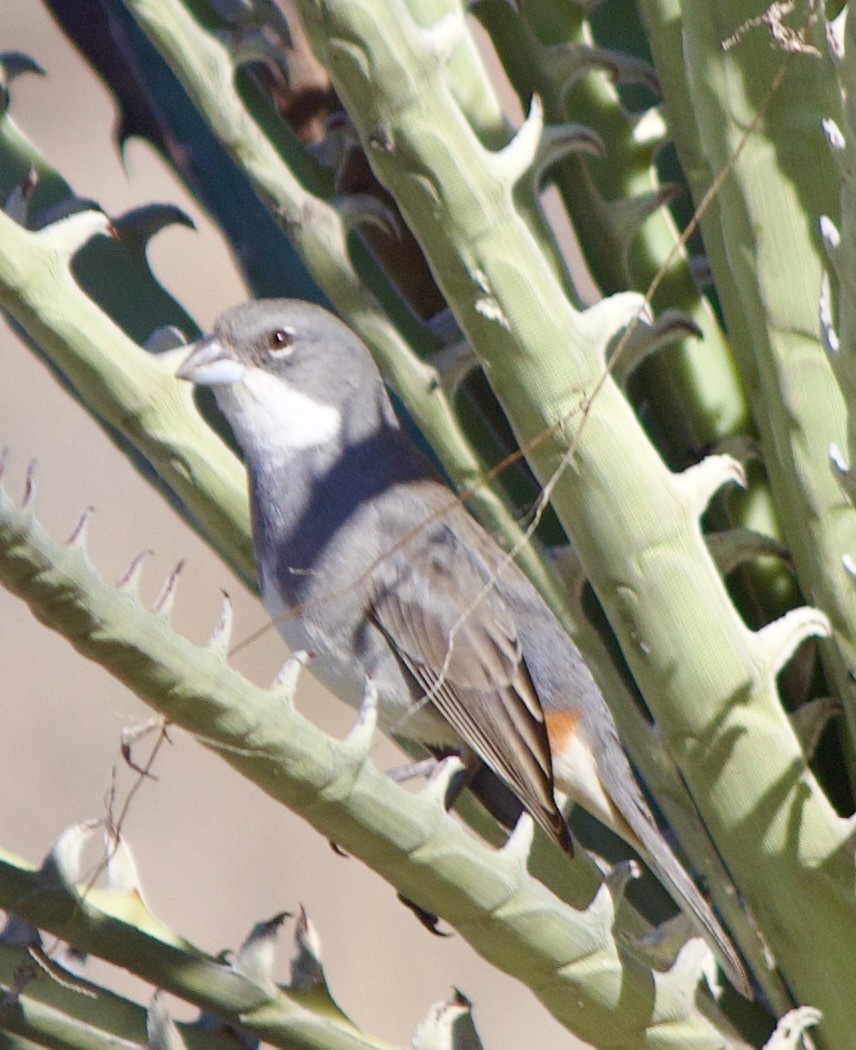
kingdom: Animalia
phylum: Chordata
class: Aves
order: Passeriformes
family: Thraupidae
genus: Diuca
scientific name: Diuca diuca
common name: Common diuca finch
